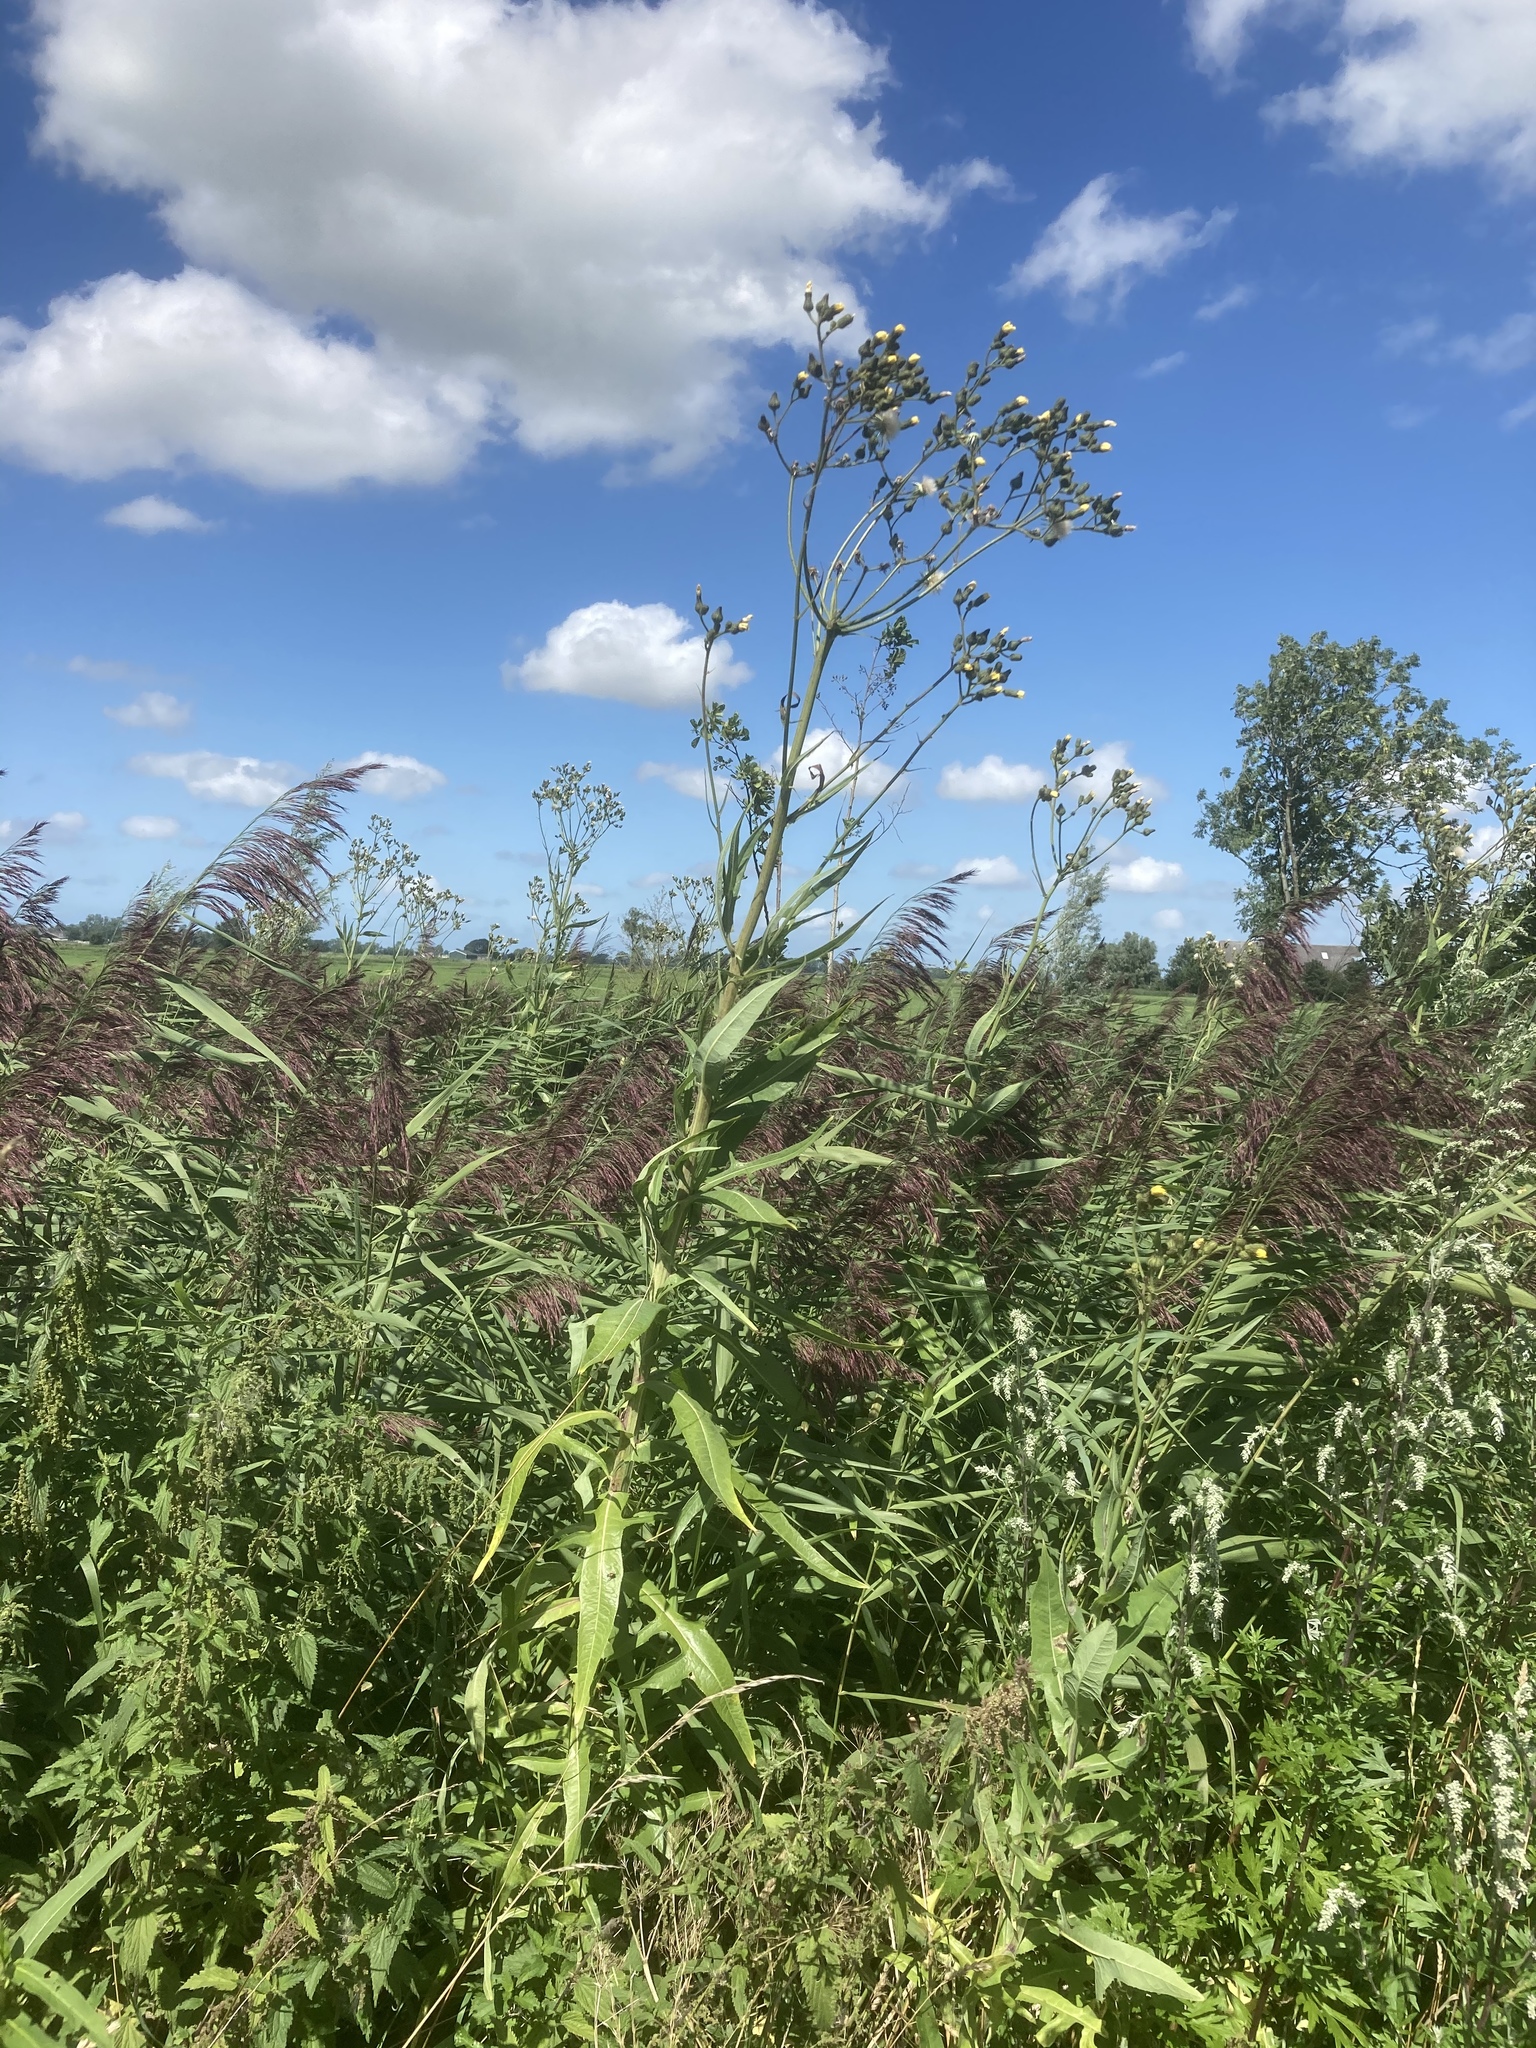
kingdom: Plantae
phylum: Tracheophyta
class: Magnoliopsida
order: Dipsacales
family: Caprifoliaceae
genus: Valeriana
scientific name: Valeriana officinalis
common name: Common valerian
